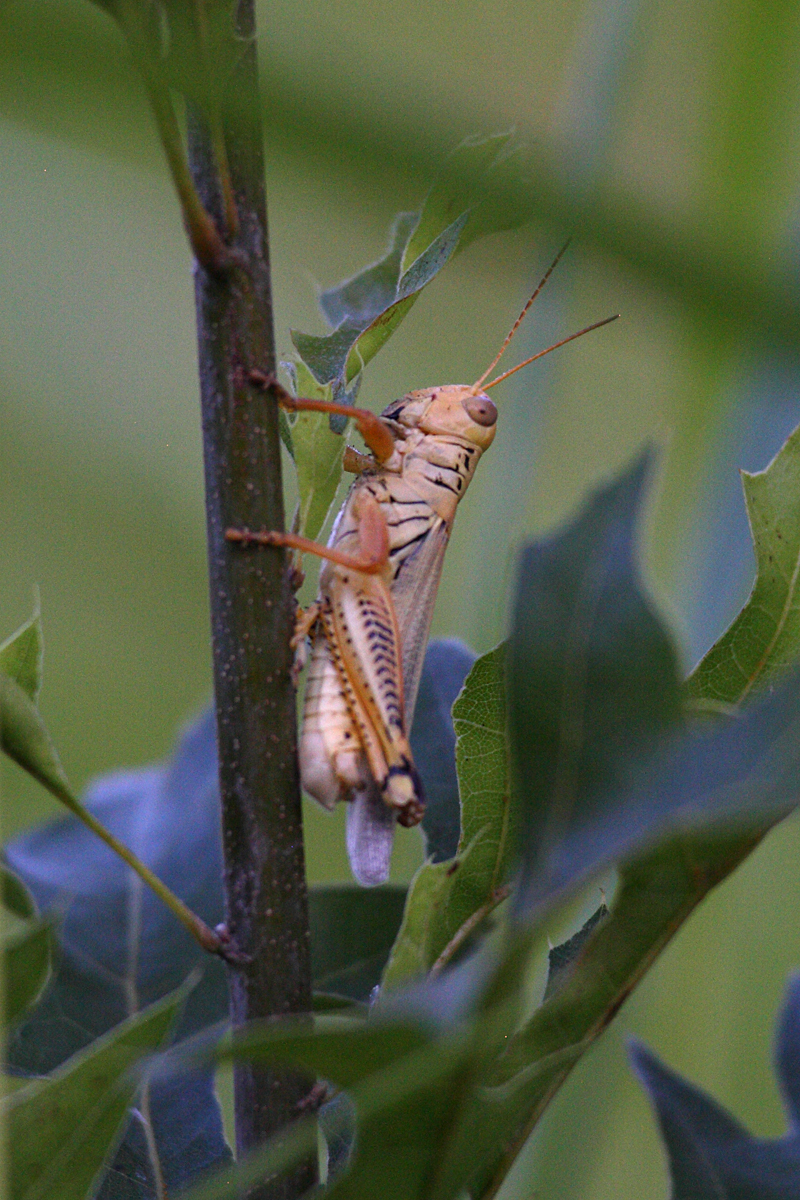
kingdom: Animalia
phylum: Arthropoda
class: Insecta
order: Orthoptera
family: Acrididae
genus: Melanoplus
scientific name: Melanoplus differentialis
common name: Differential grasshopper
